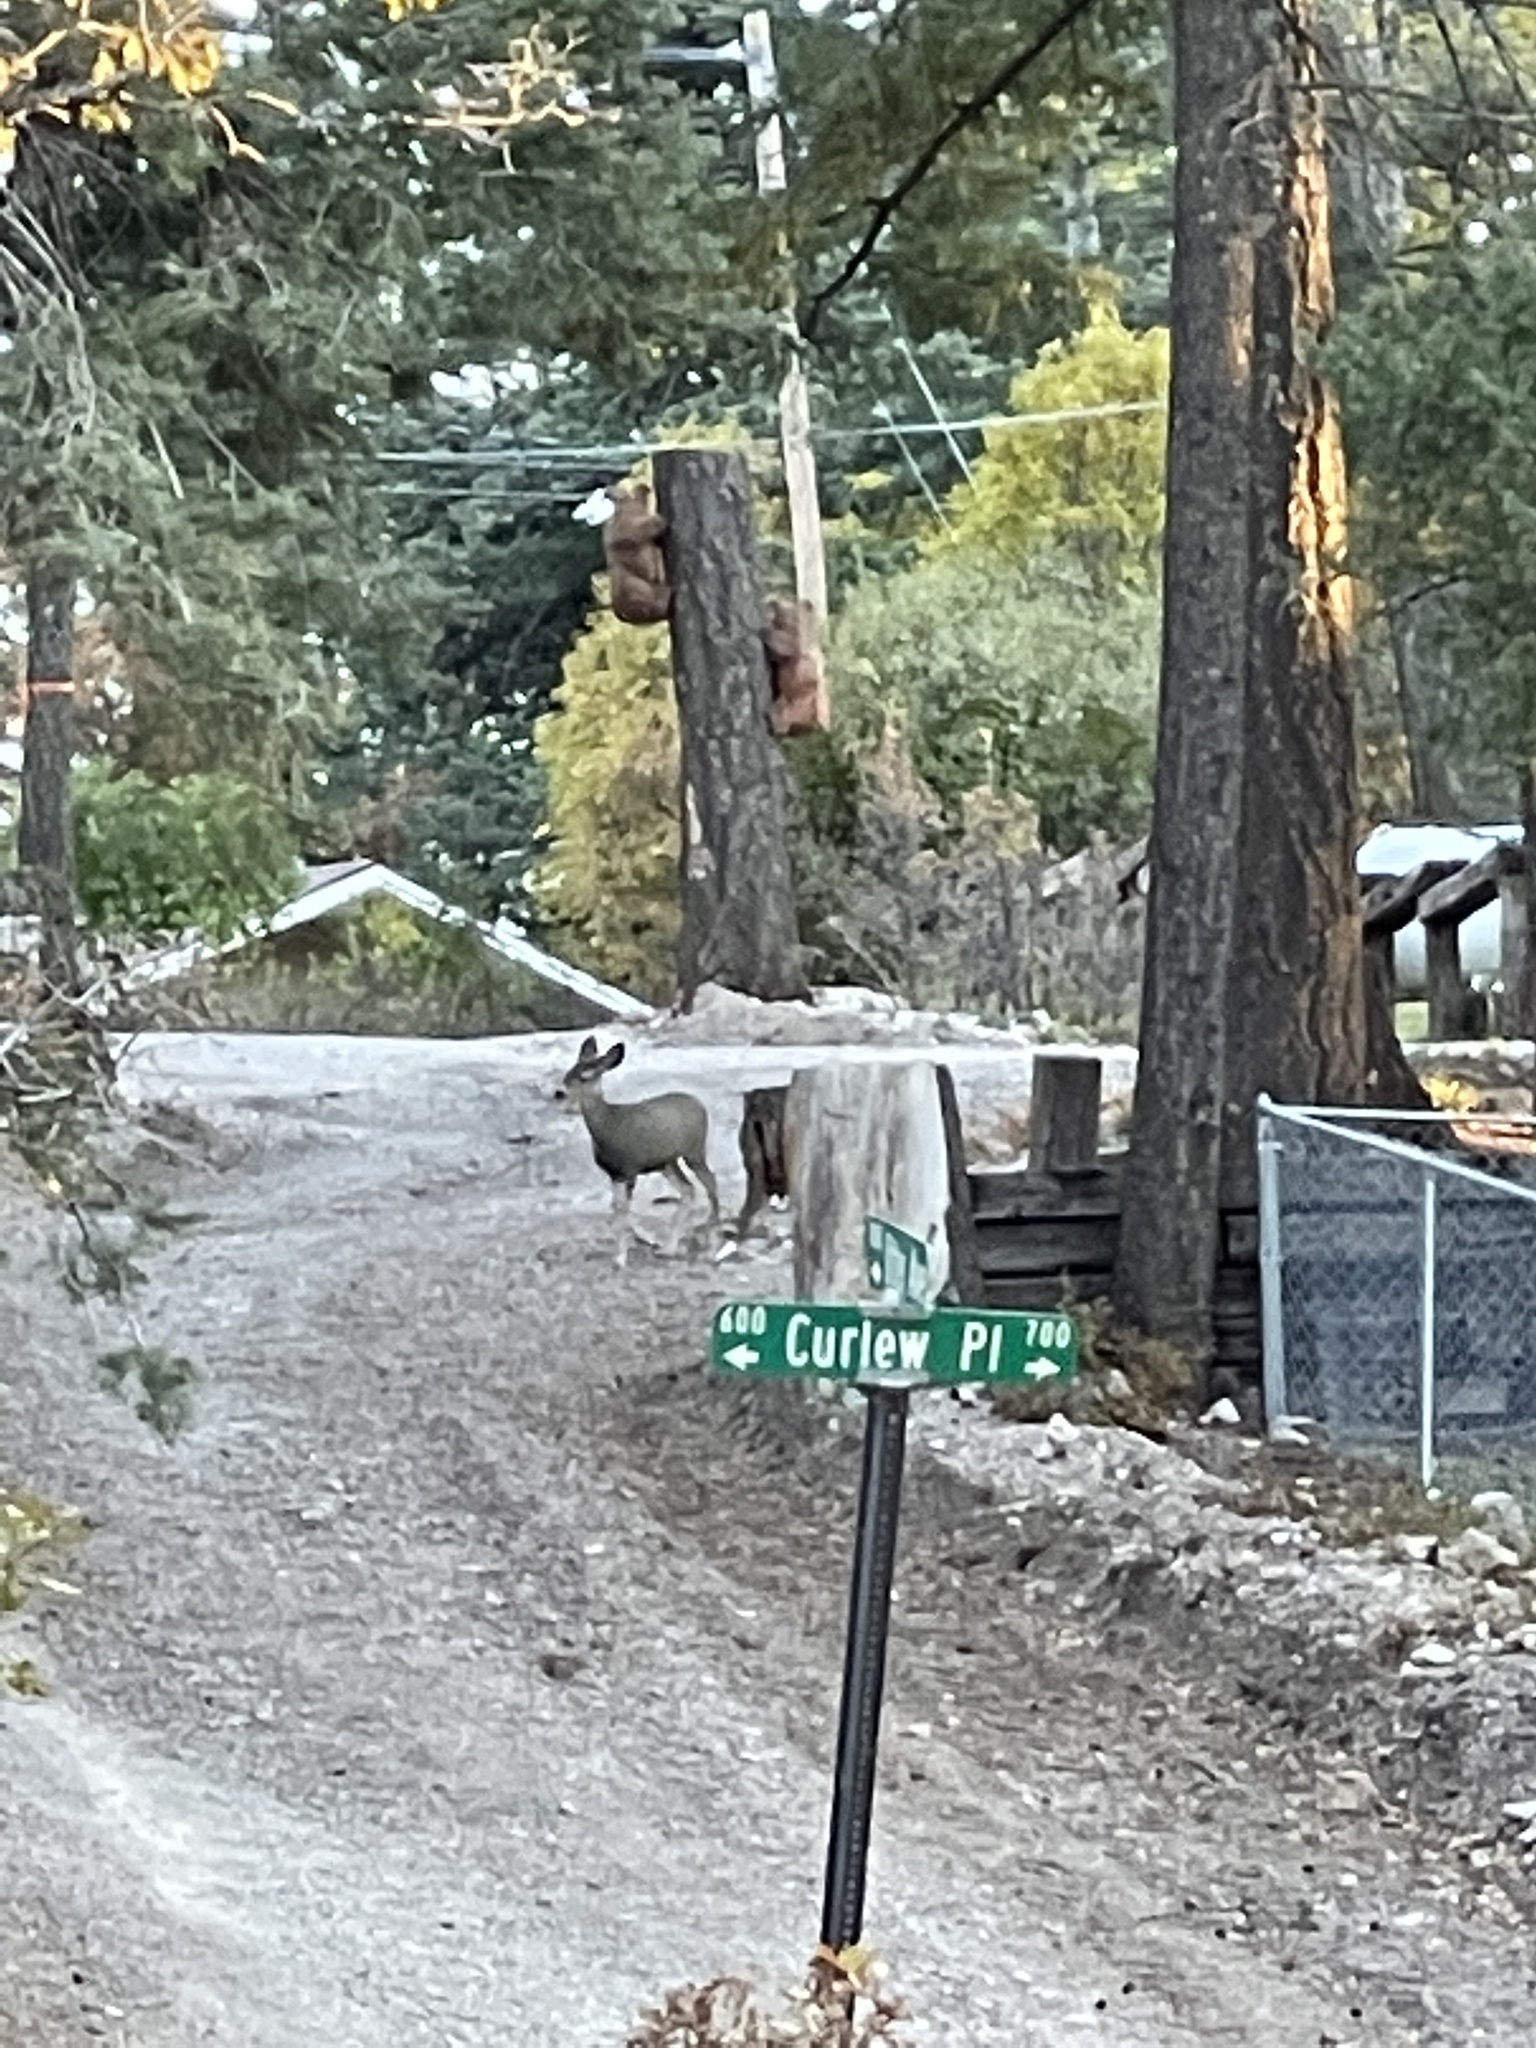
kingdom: Animalia
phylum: Chordata
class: Mammalia
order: Artiodactyla
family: Cervidae
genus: Odocoileus
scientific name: Odocoileus hemionus
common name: Mule deer
